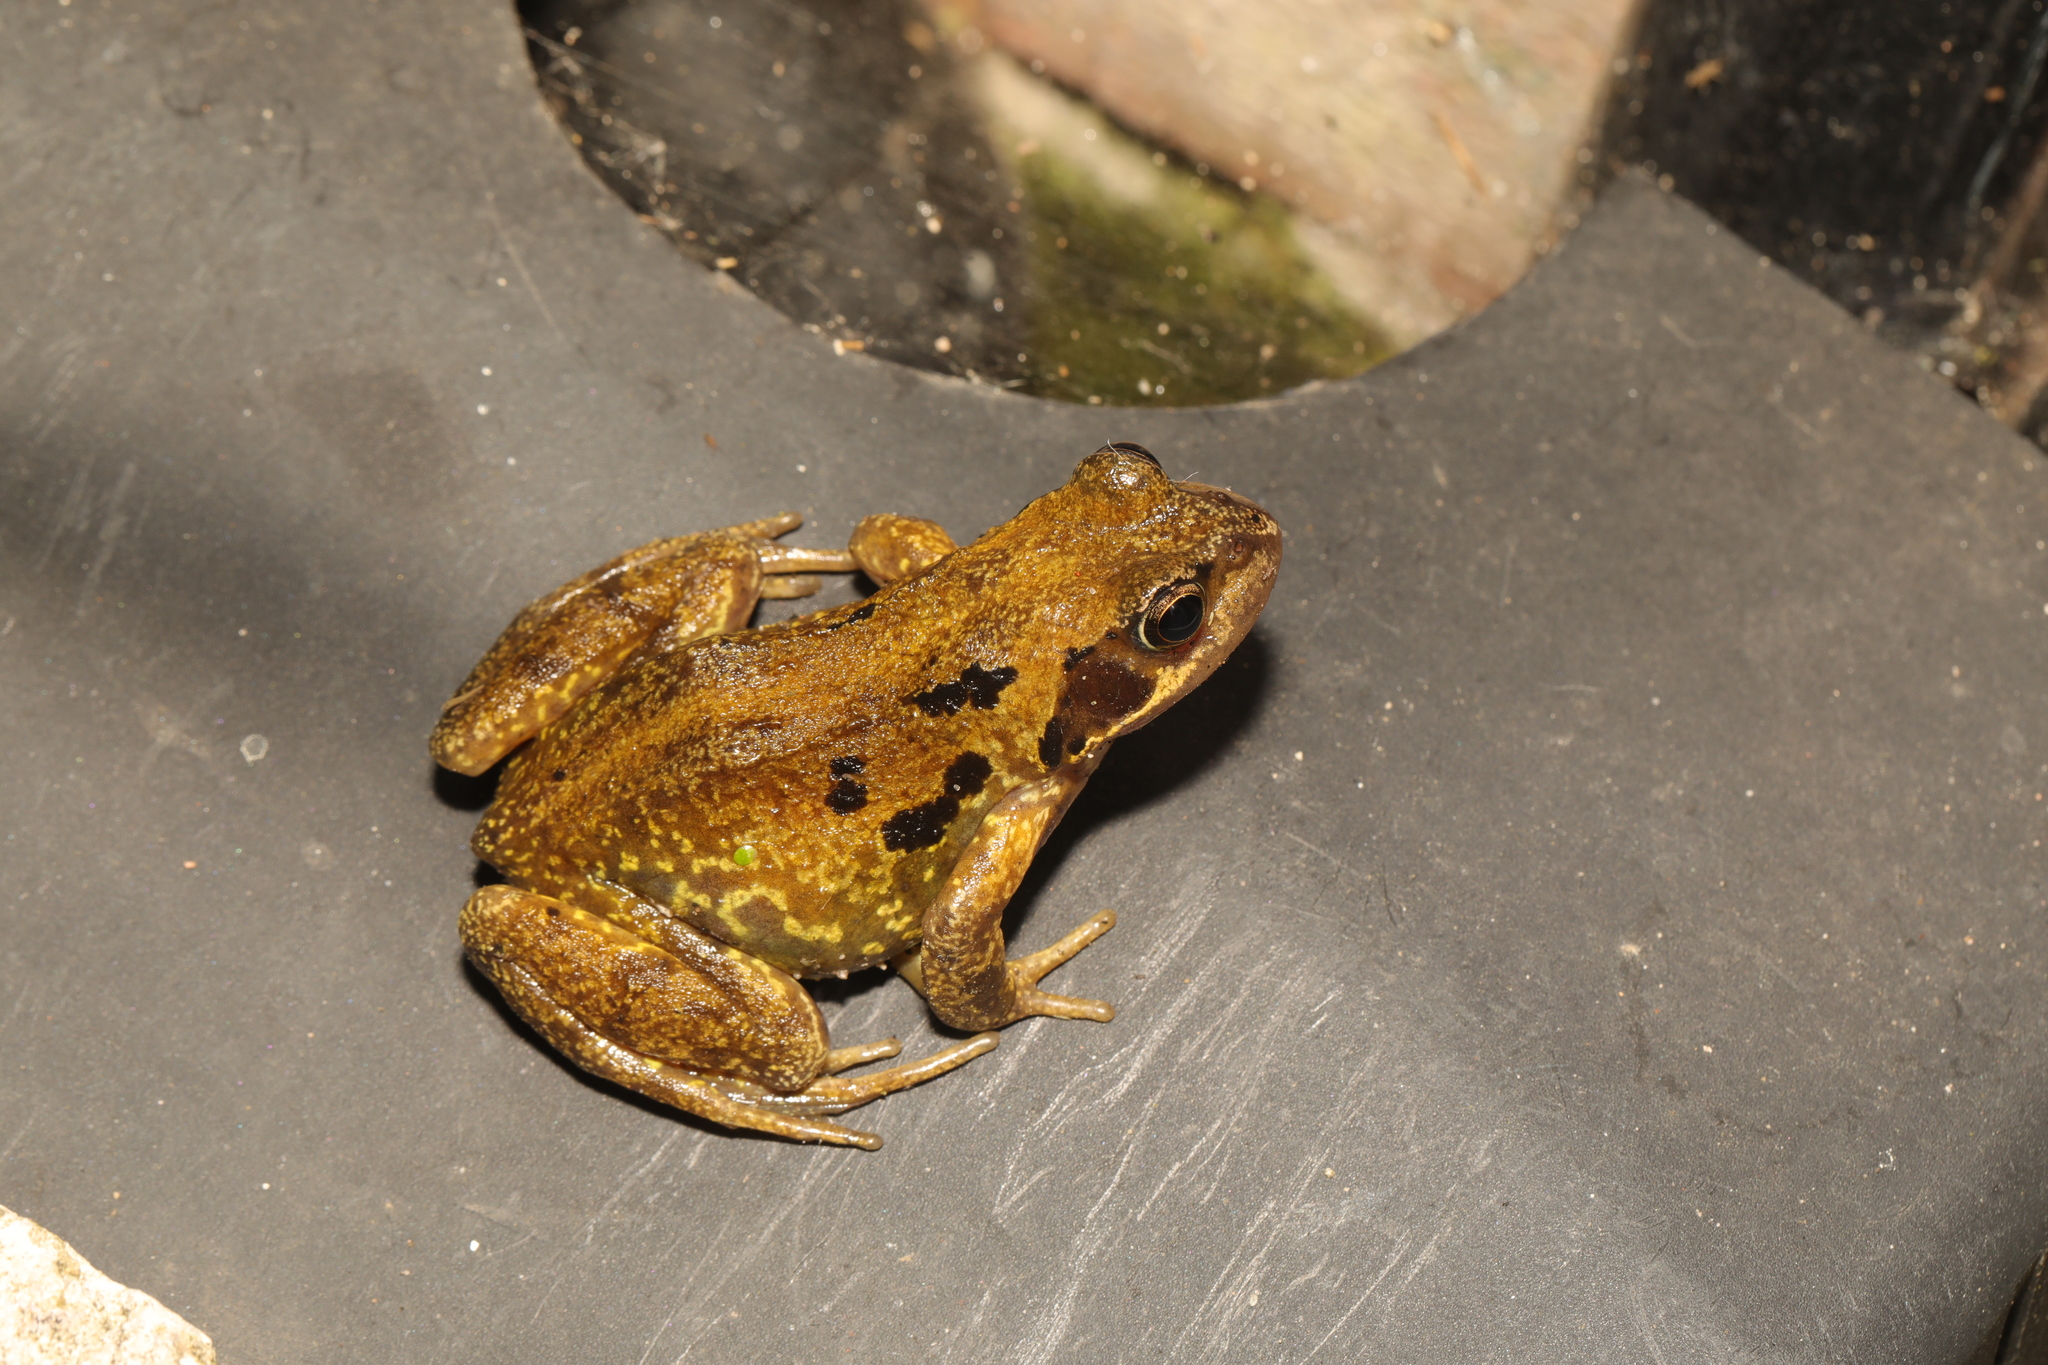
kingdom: Animalia
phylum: Chordata
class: Amphibia
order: Anura
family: Ranidae
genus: Rana
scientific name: Rana temporaria
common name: Common frog
